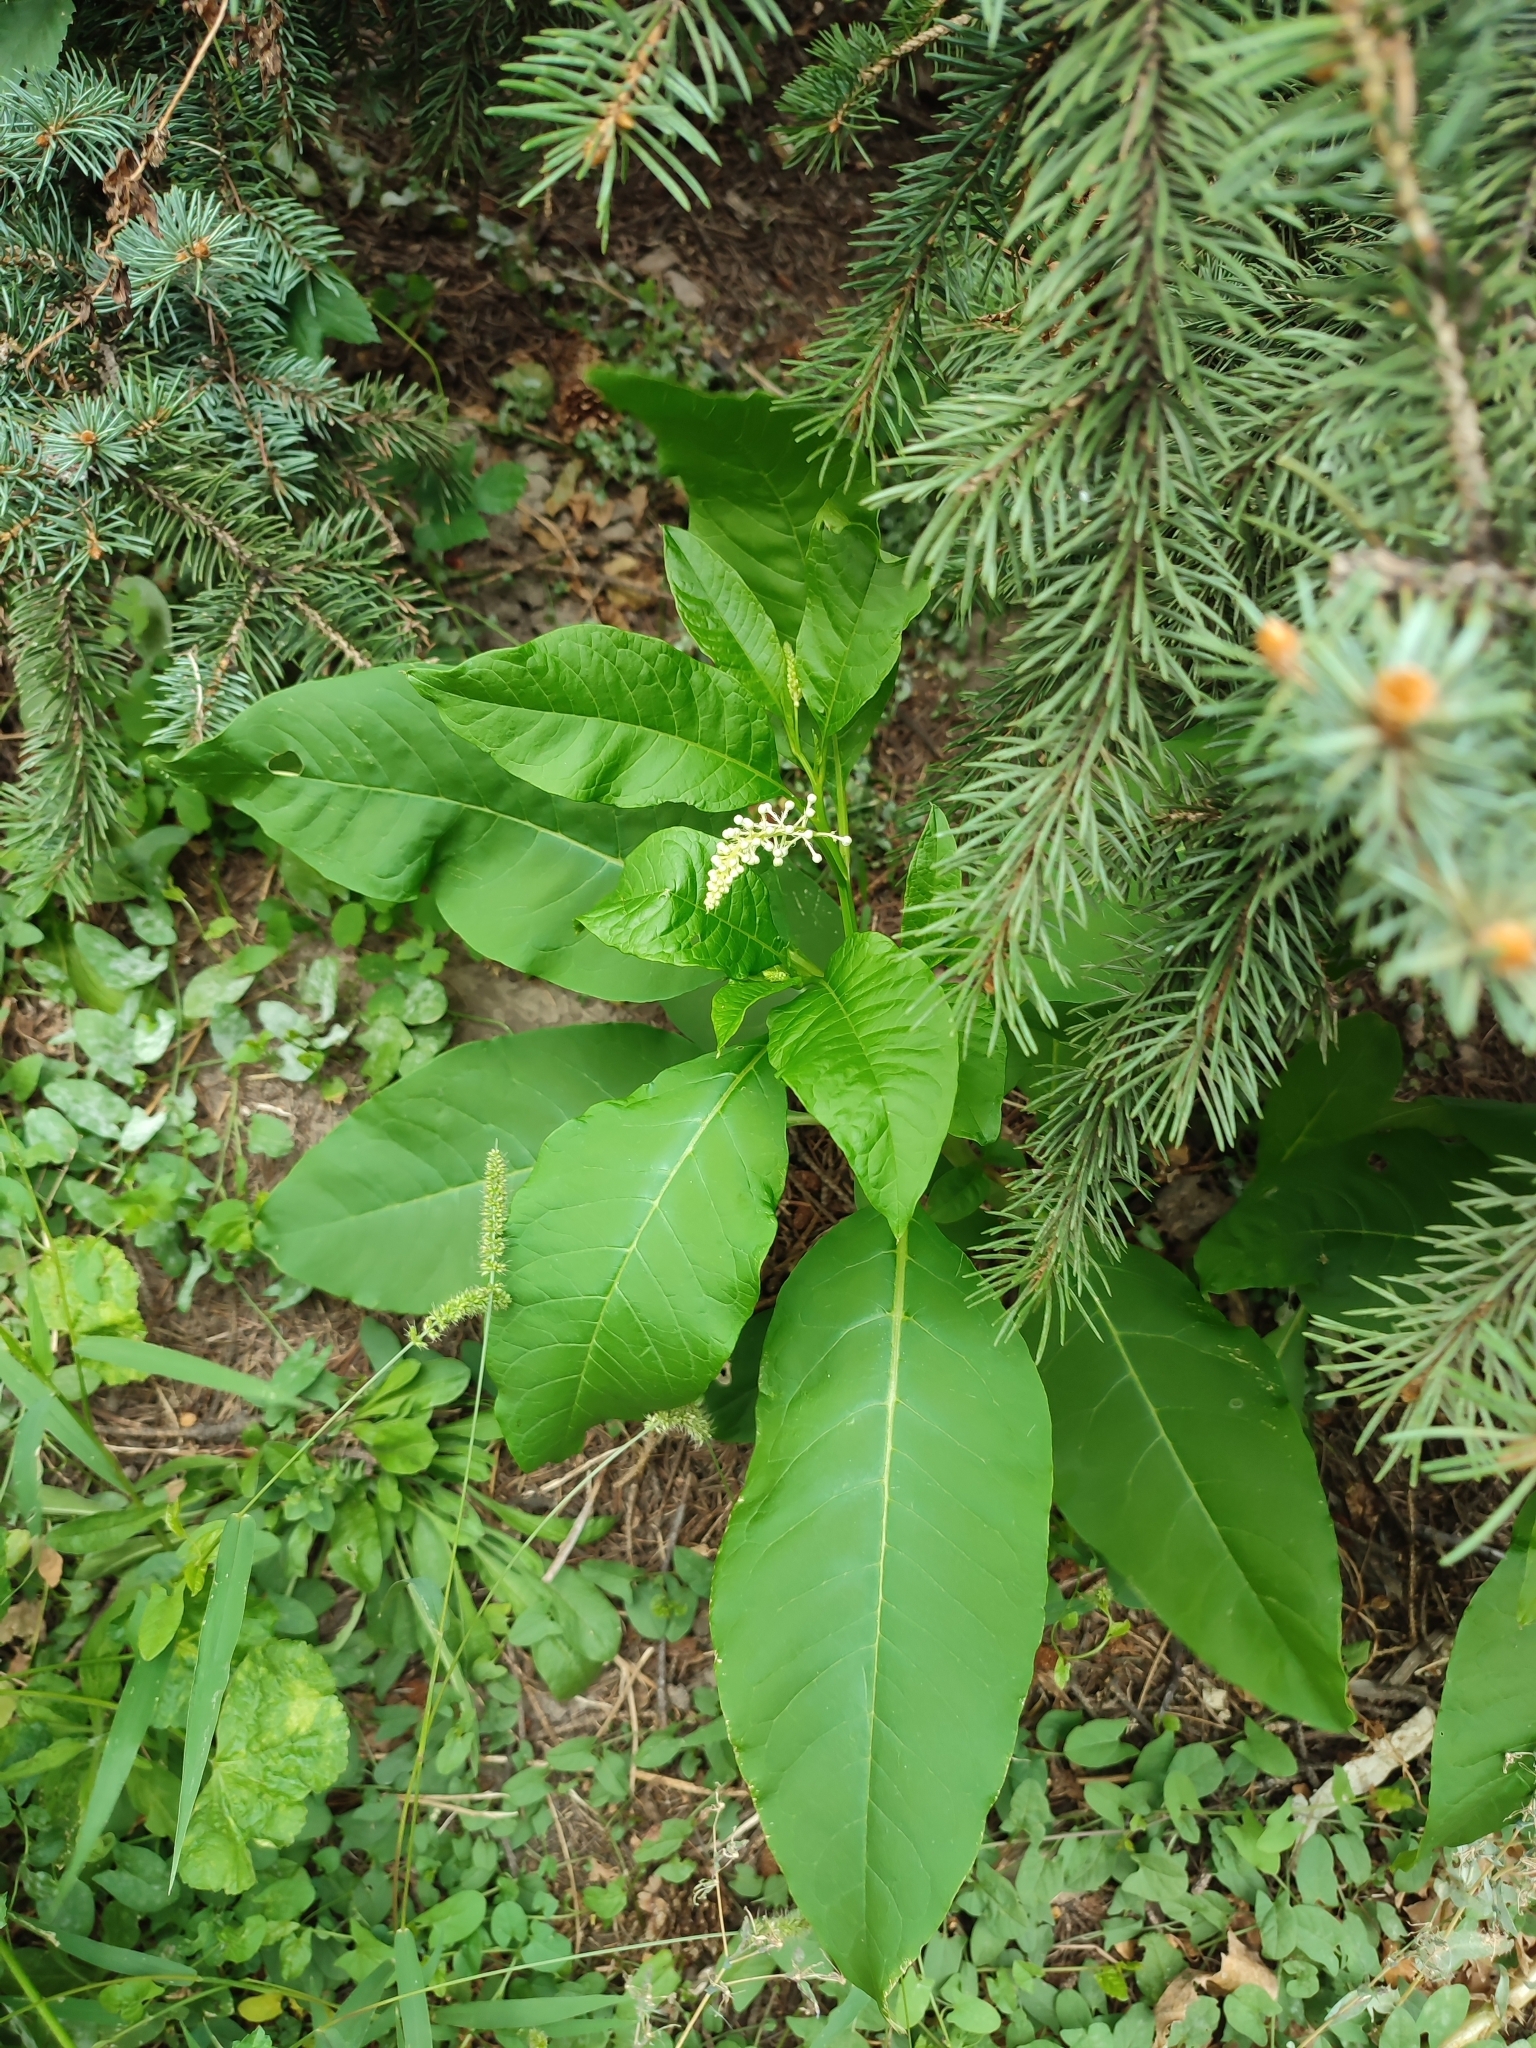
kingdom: Plantae
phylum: Tracheophyta
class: Magnoliopsida
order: Caryophyllales
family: Phytolaccaceae
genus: Phytolacca
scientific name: Phytolacca americana
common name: American pokeweed
